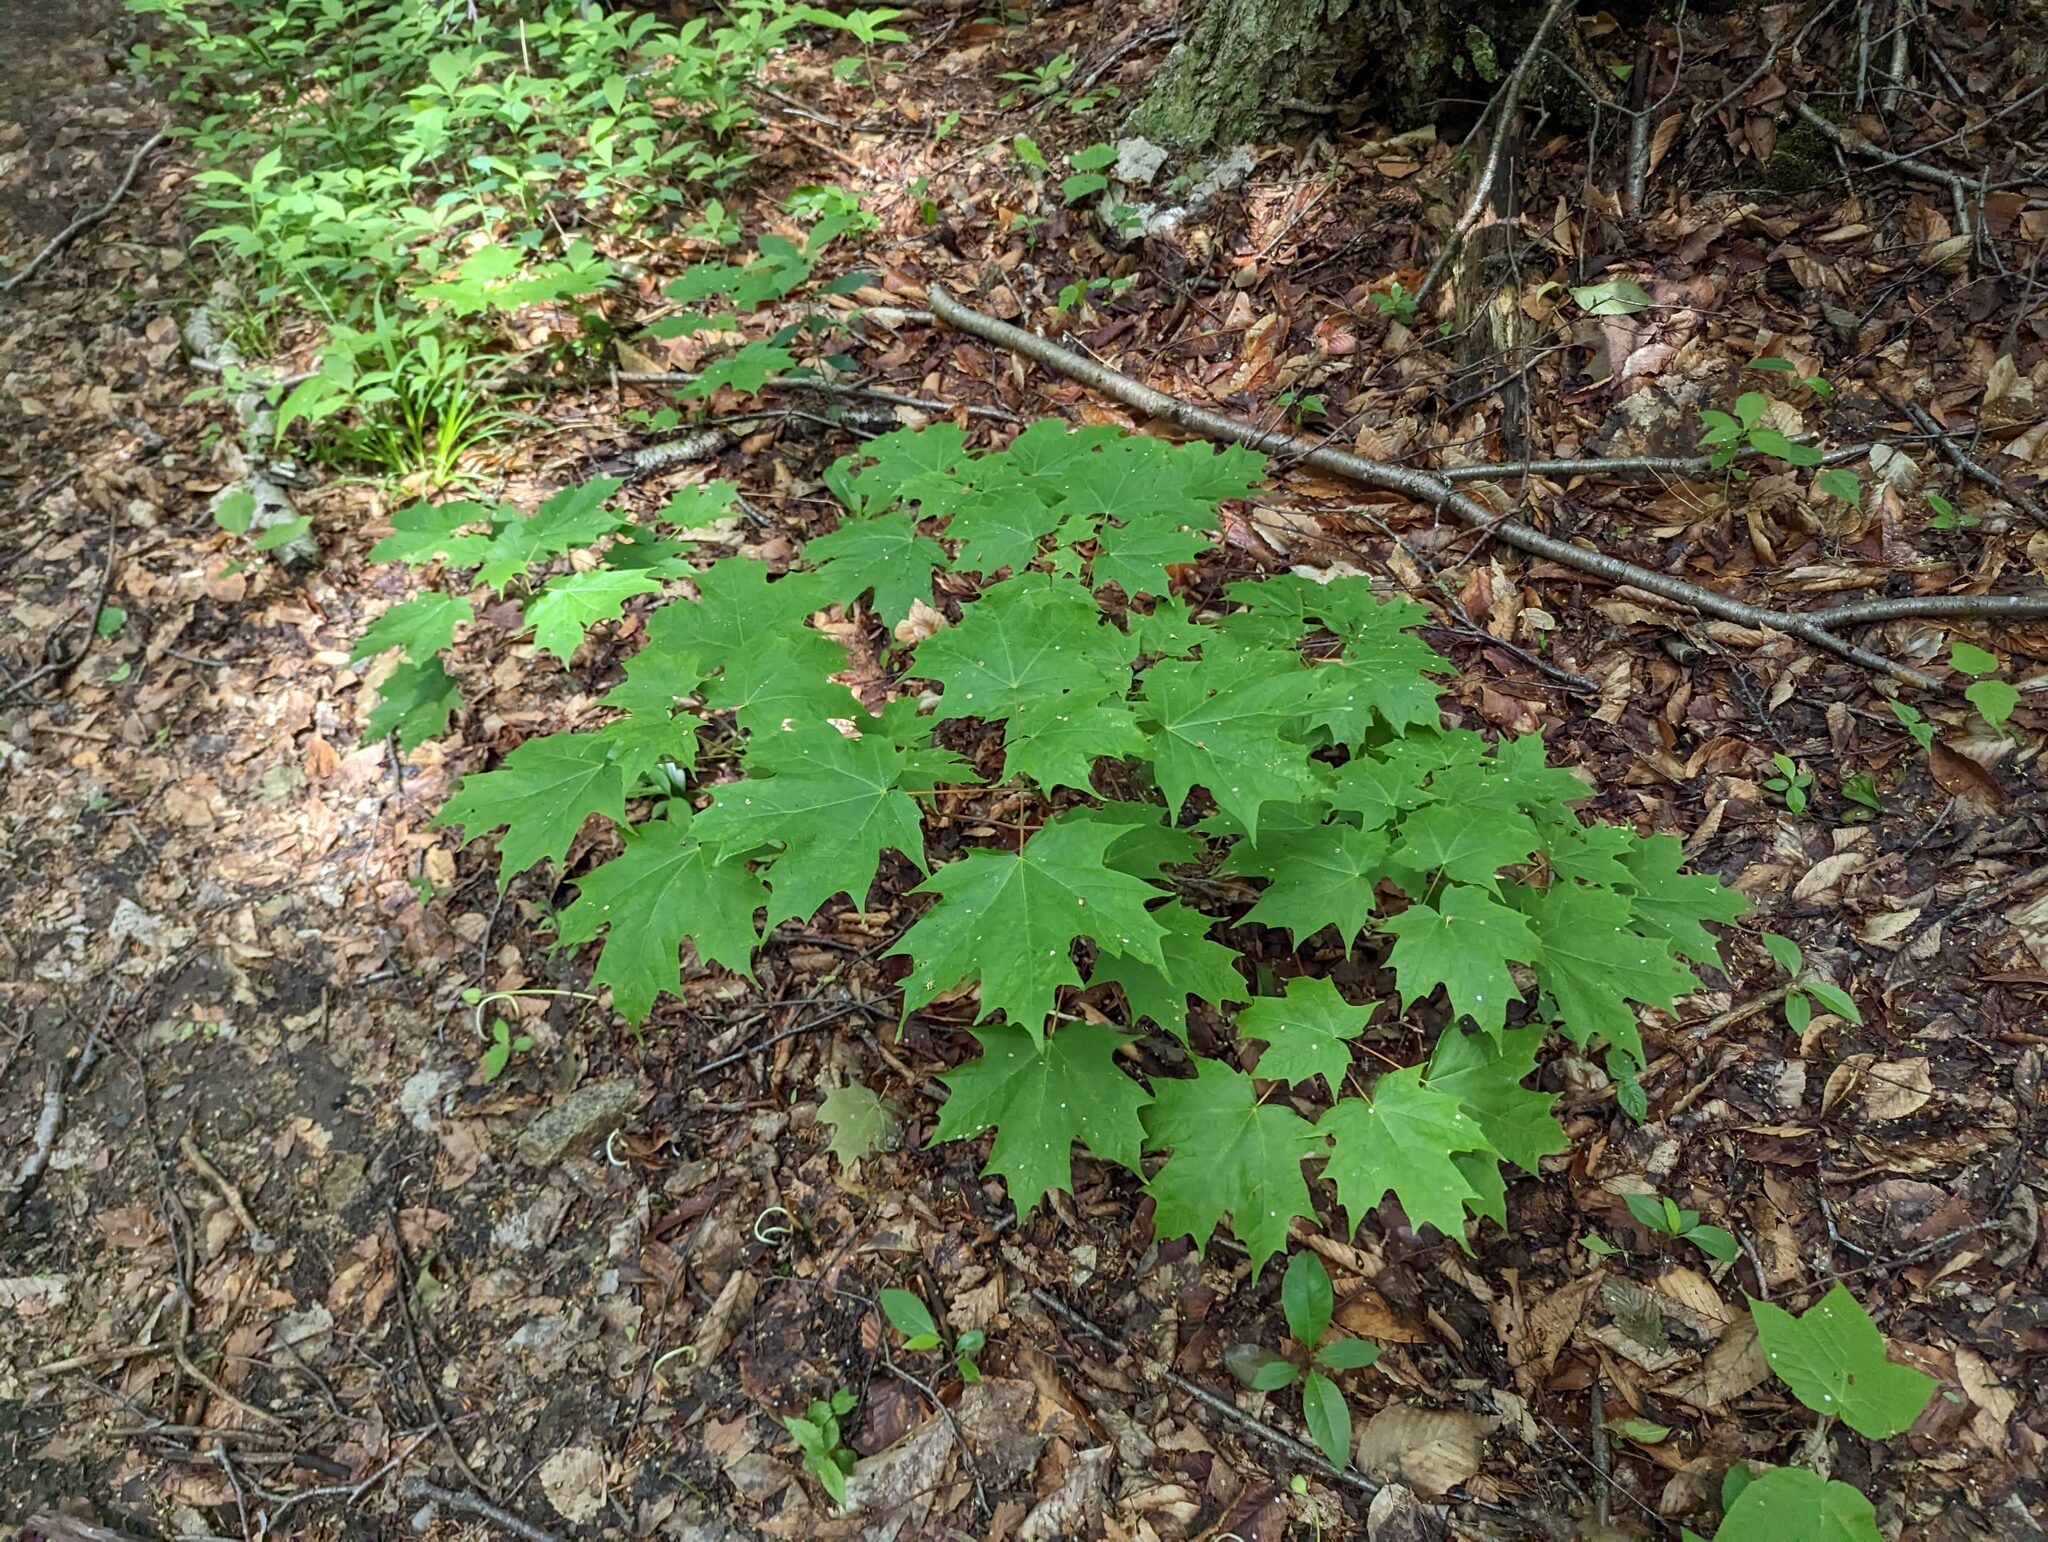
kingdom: Plantae
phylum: Tracheophyta
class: Magnoliopsida
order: Sapindales
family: Sapindaceae
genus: Acer
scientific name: Acer saccharum
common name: Sugar maple
